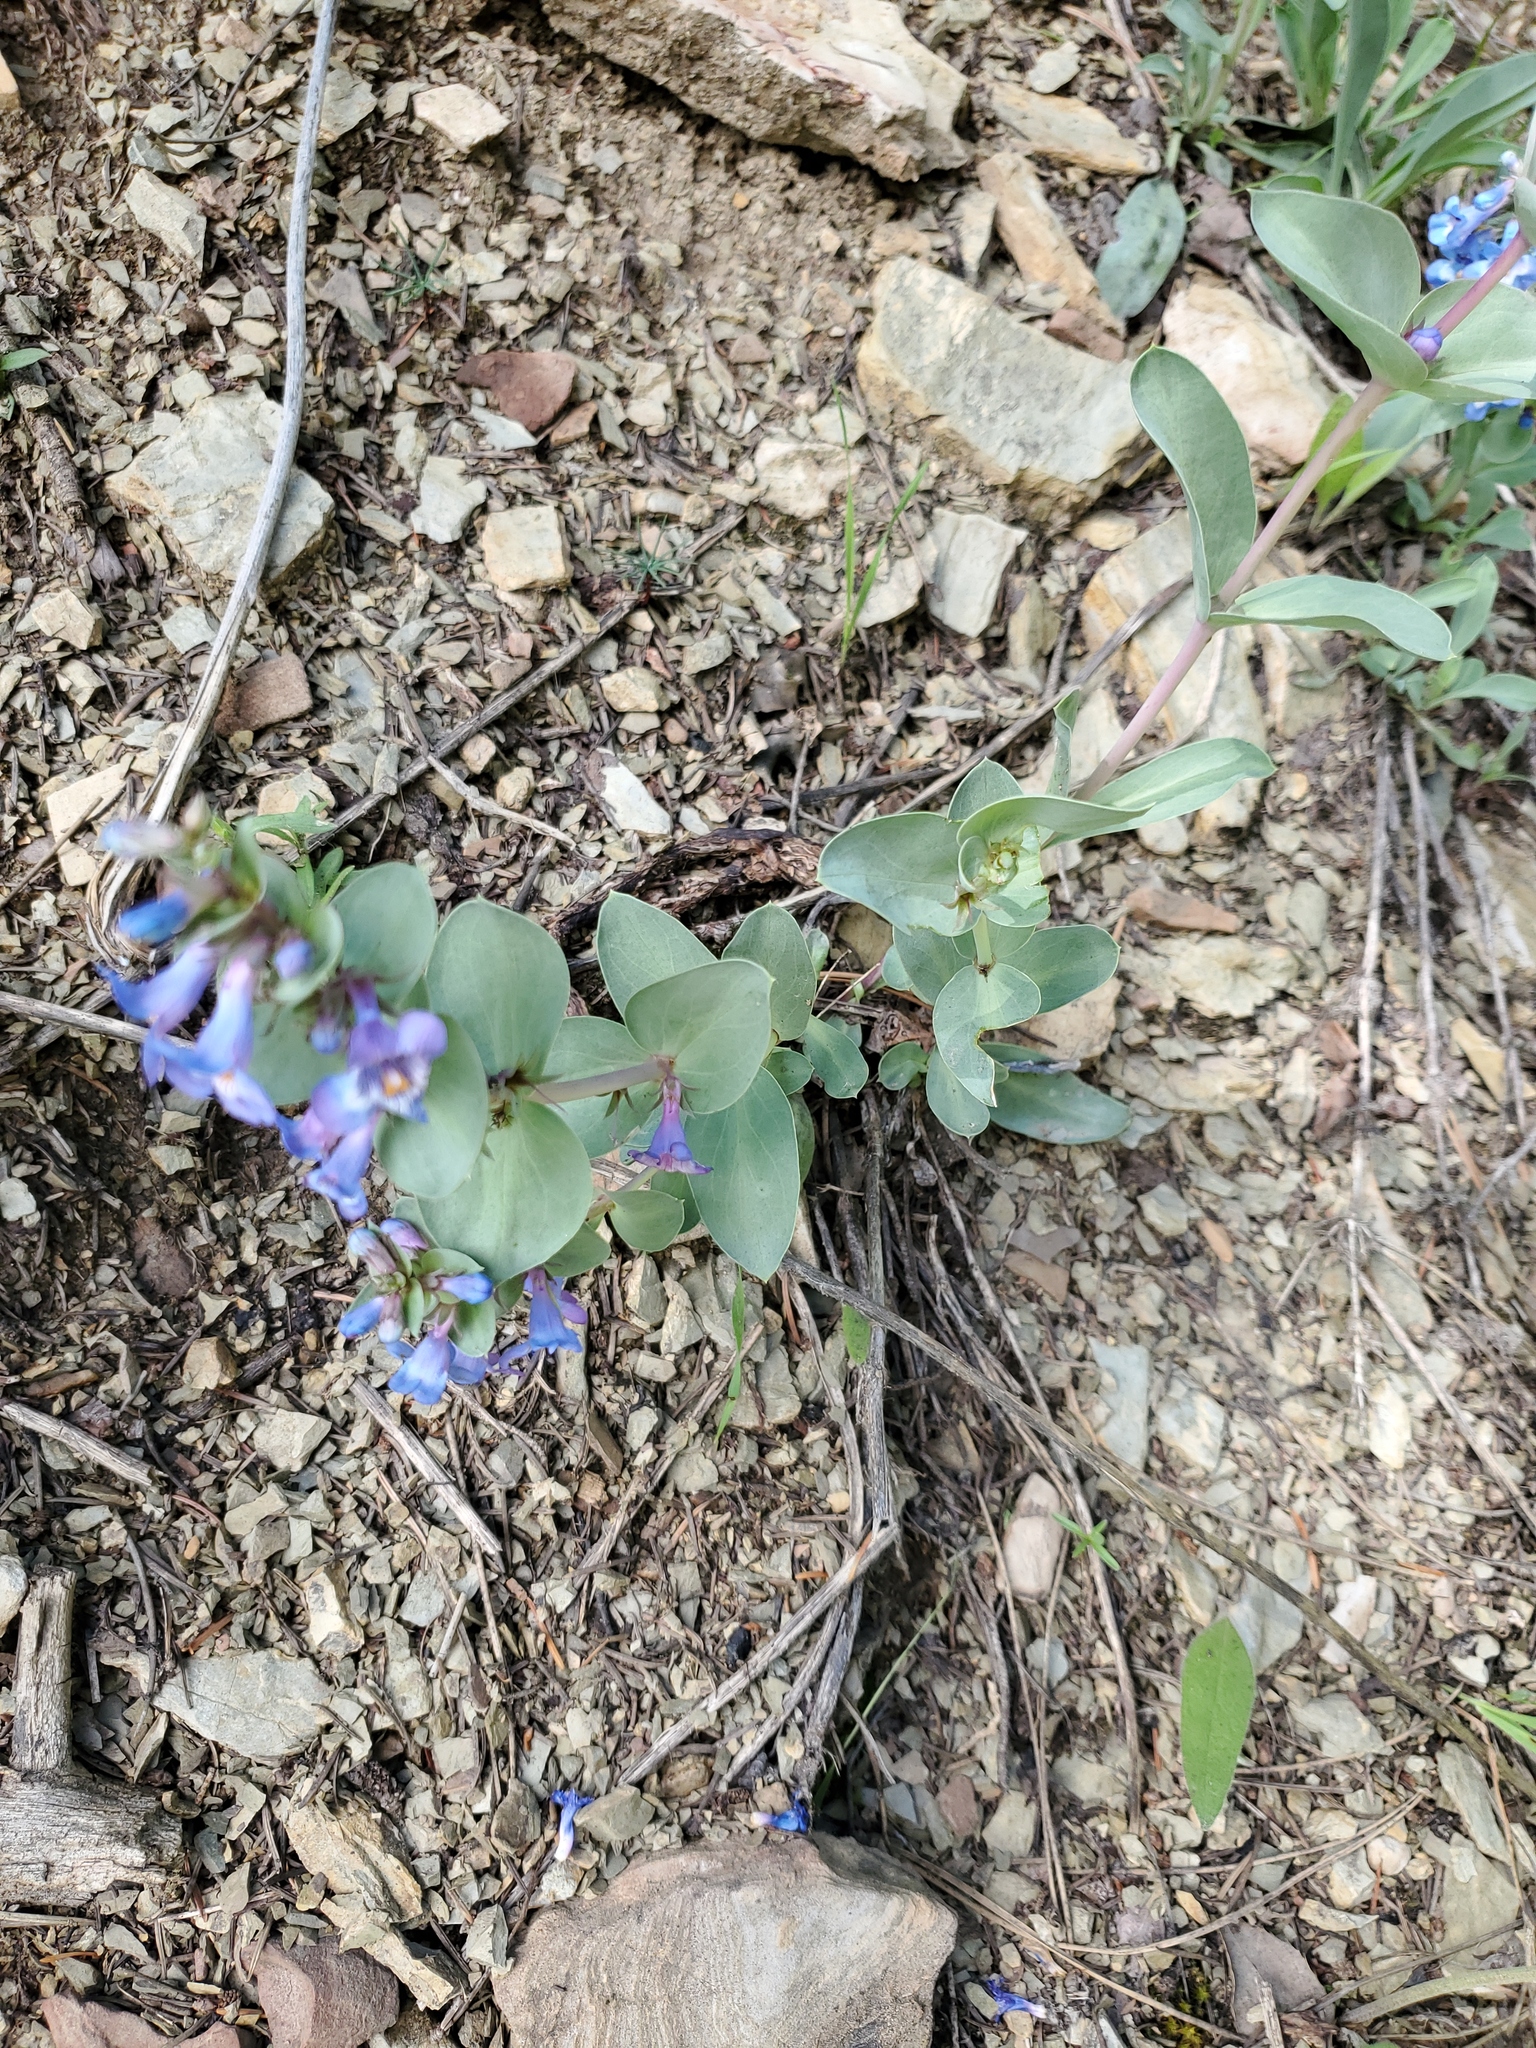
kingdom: Plantae
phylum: Tracheophyta
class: Magnoliopsida
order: Lamiales
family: Plantaginaceae
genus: Penstemon
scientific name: Penstemon nitidus
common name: Shining penstemon
